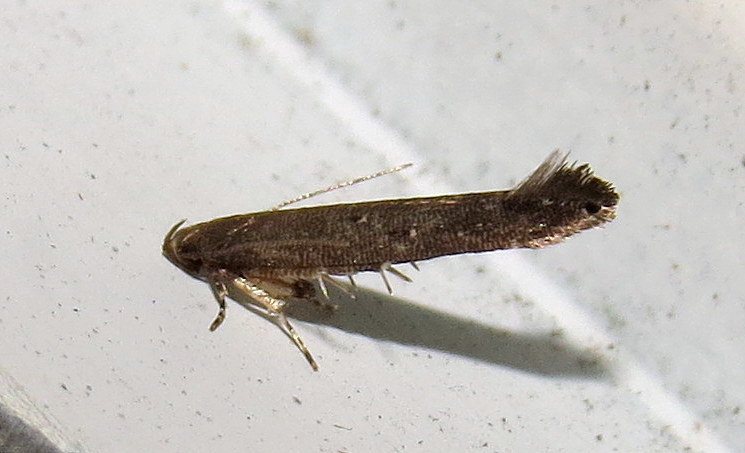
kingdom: Animalia
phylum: Arthropoda
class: Insecta
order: Lepidoptera
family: Cosmopterigidae
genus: Ithome
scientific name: Ithome erransella
